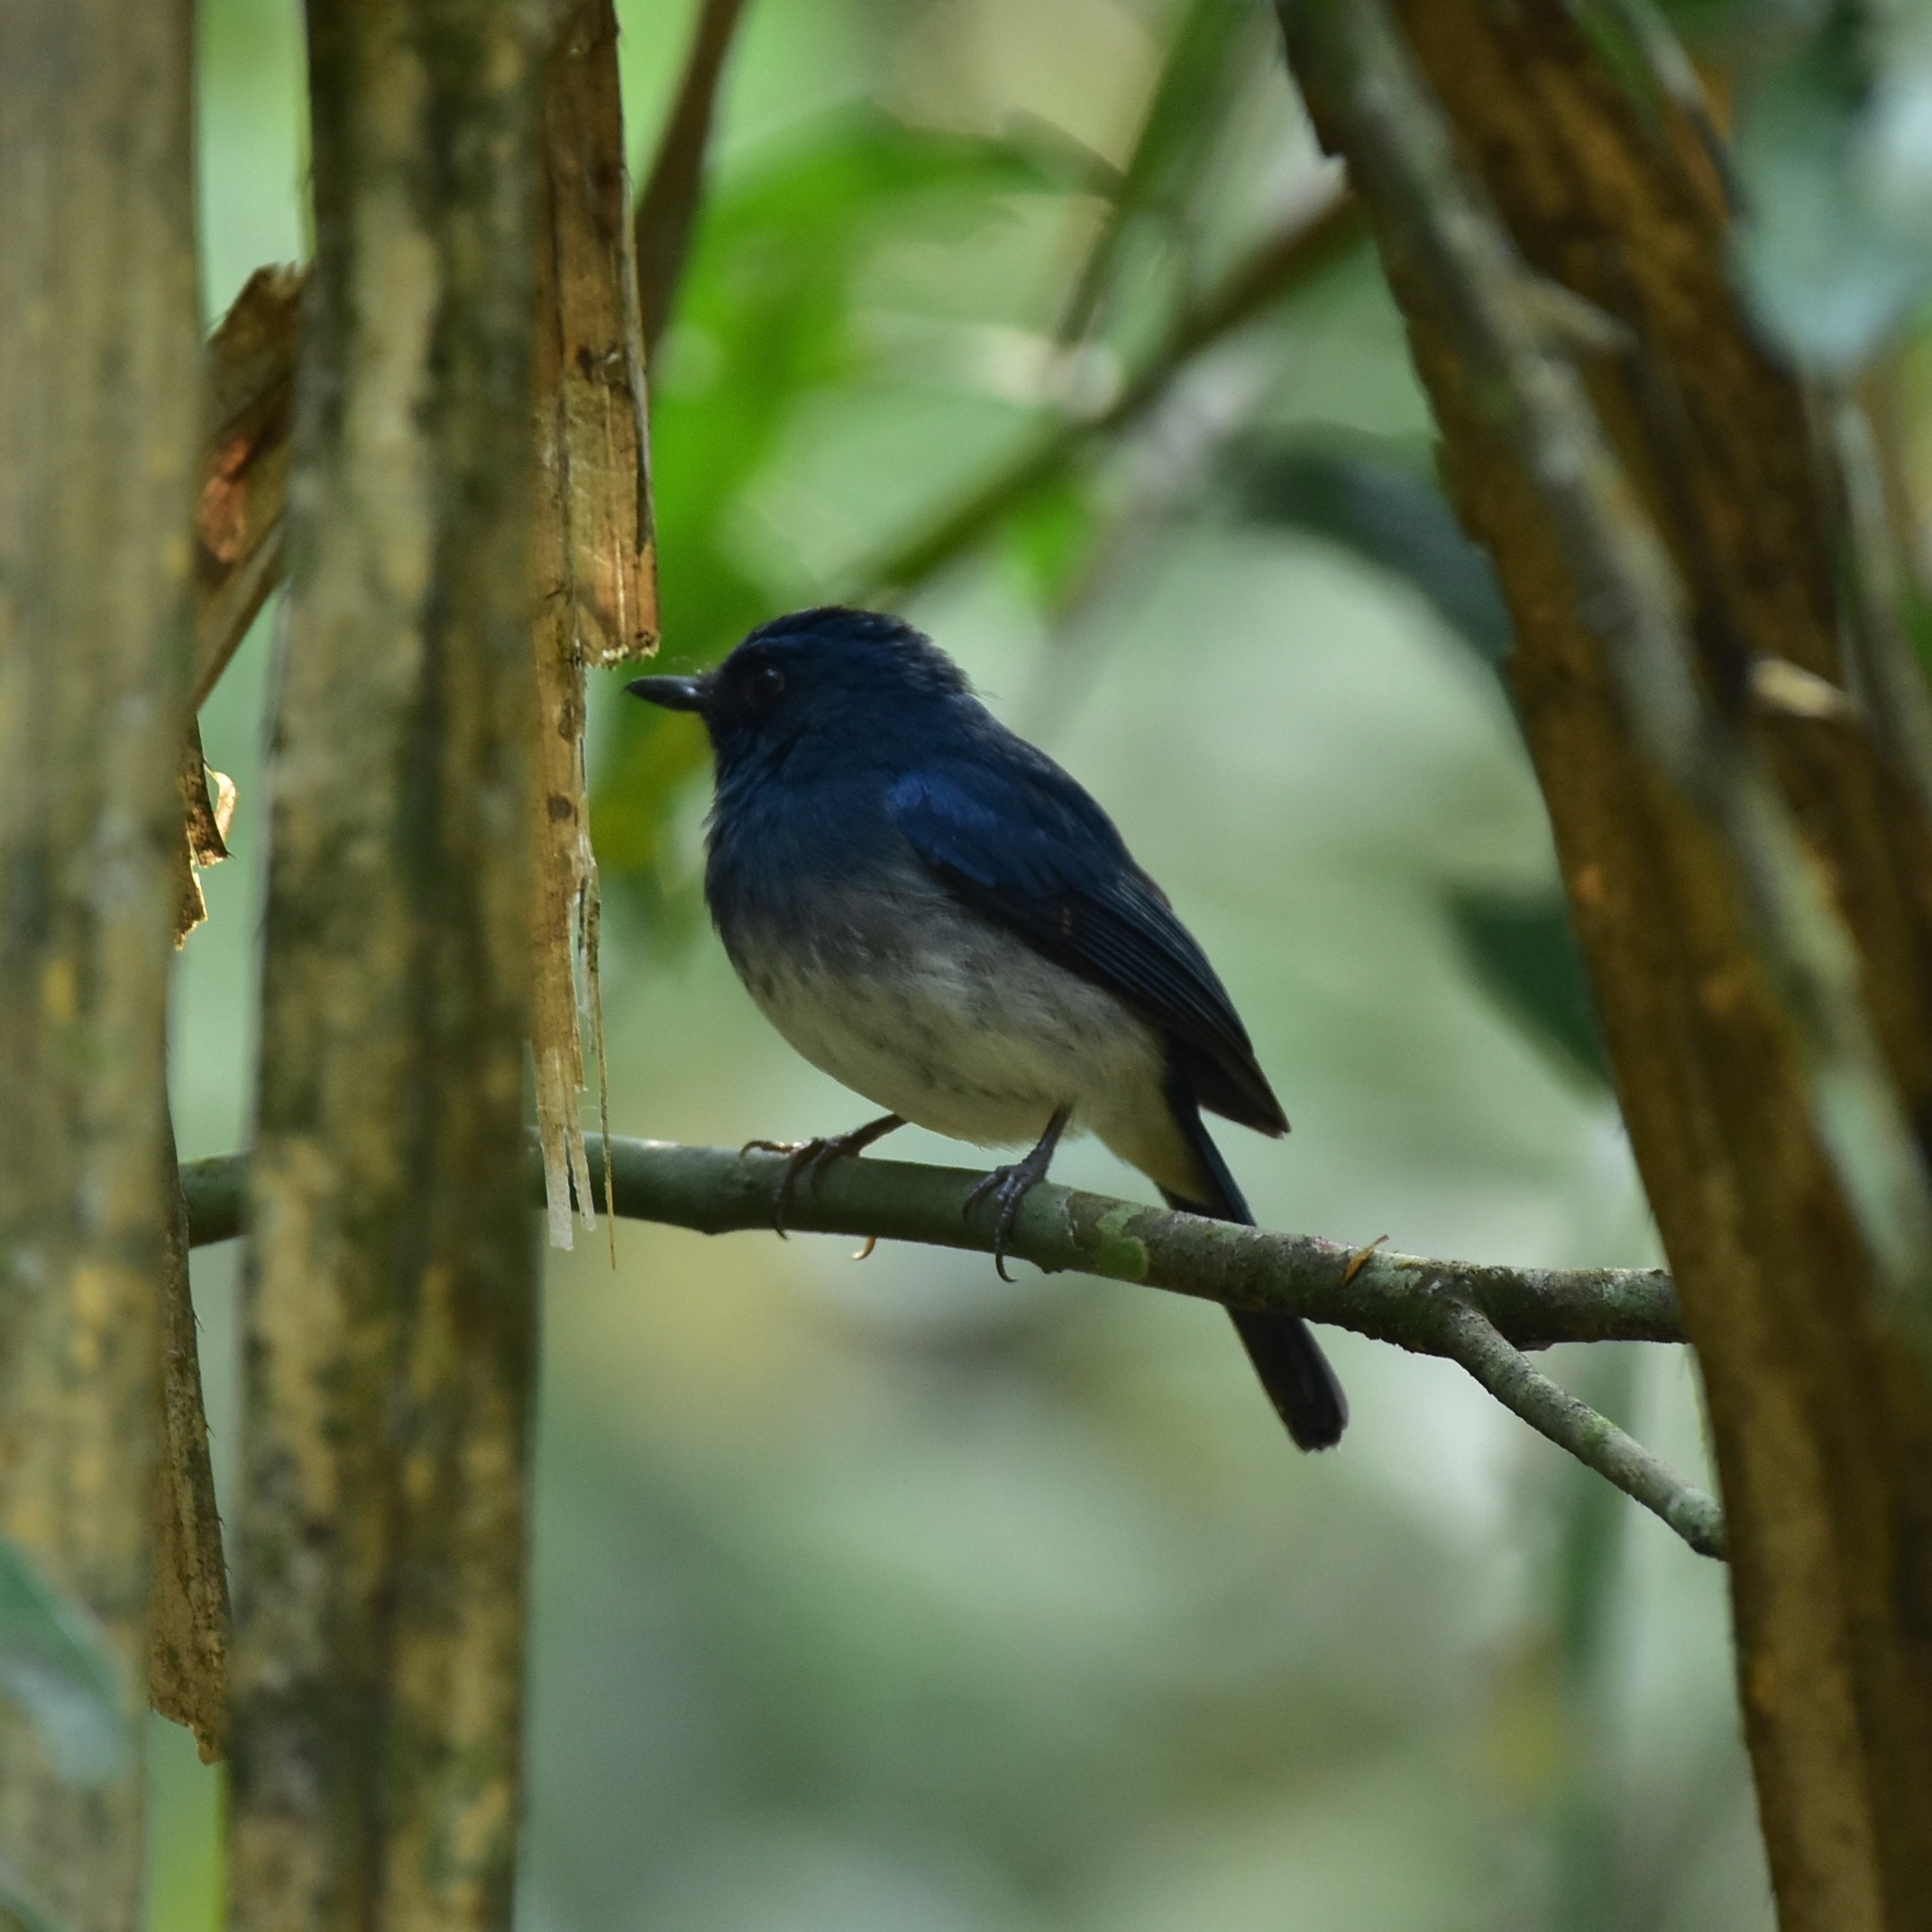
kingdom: Animalia
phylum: Chordata
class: Aves
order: Passeriformes
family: Muscicapidae
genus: Cyornis
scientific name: Cyornis pallidipes
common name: White-bellied blue flycatcher
